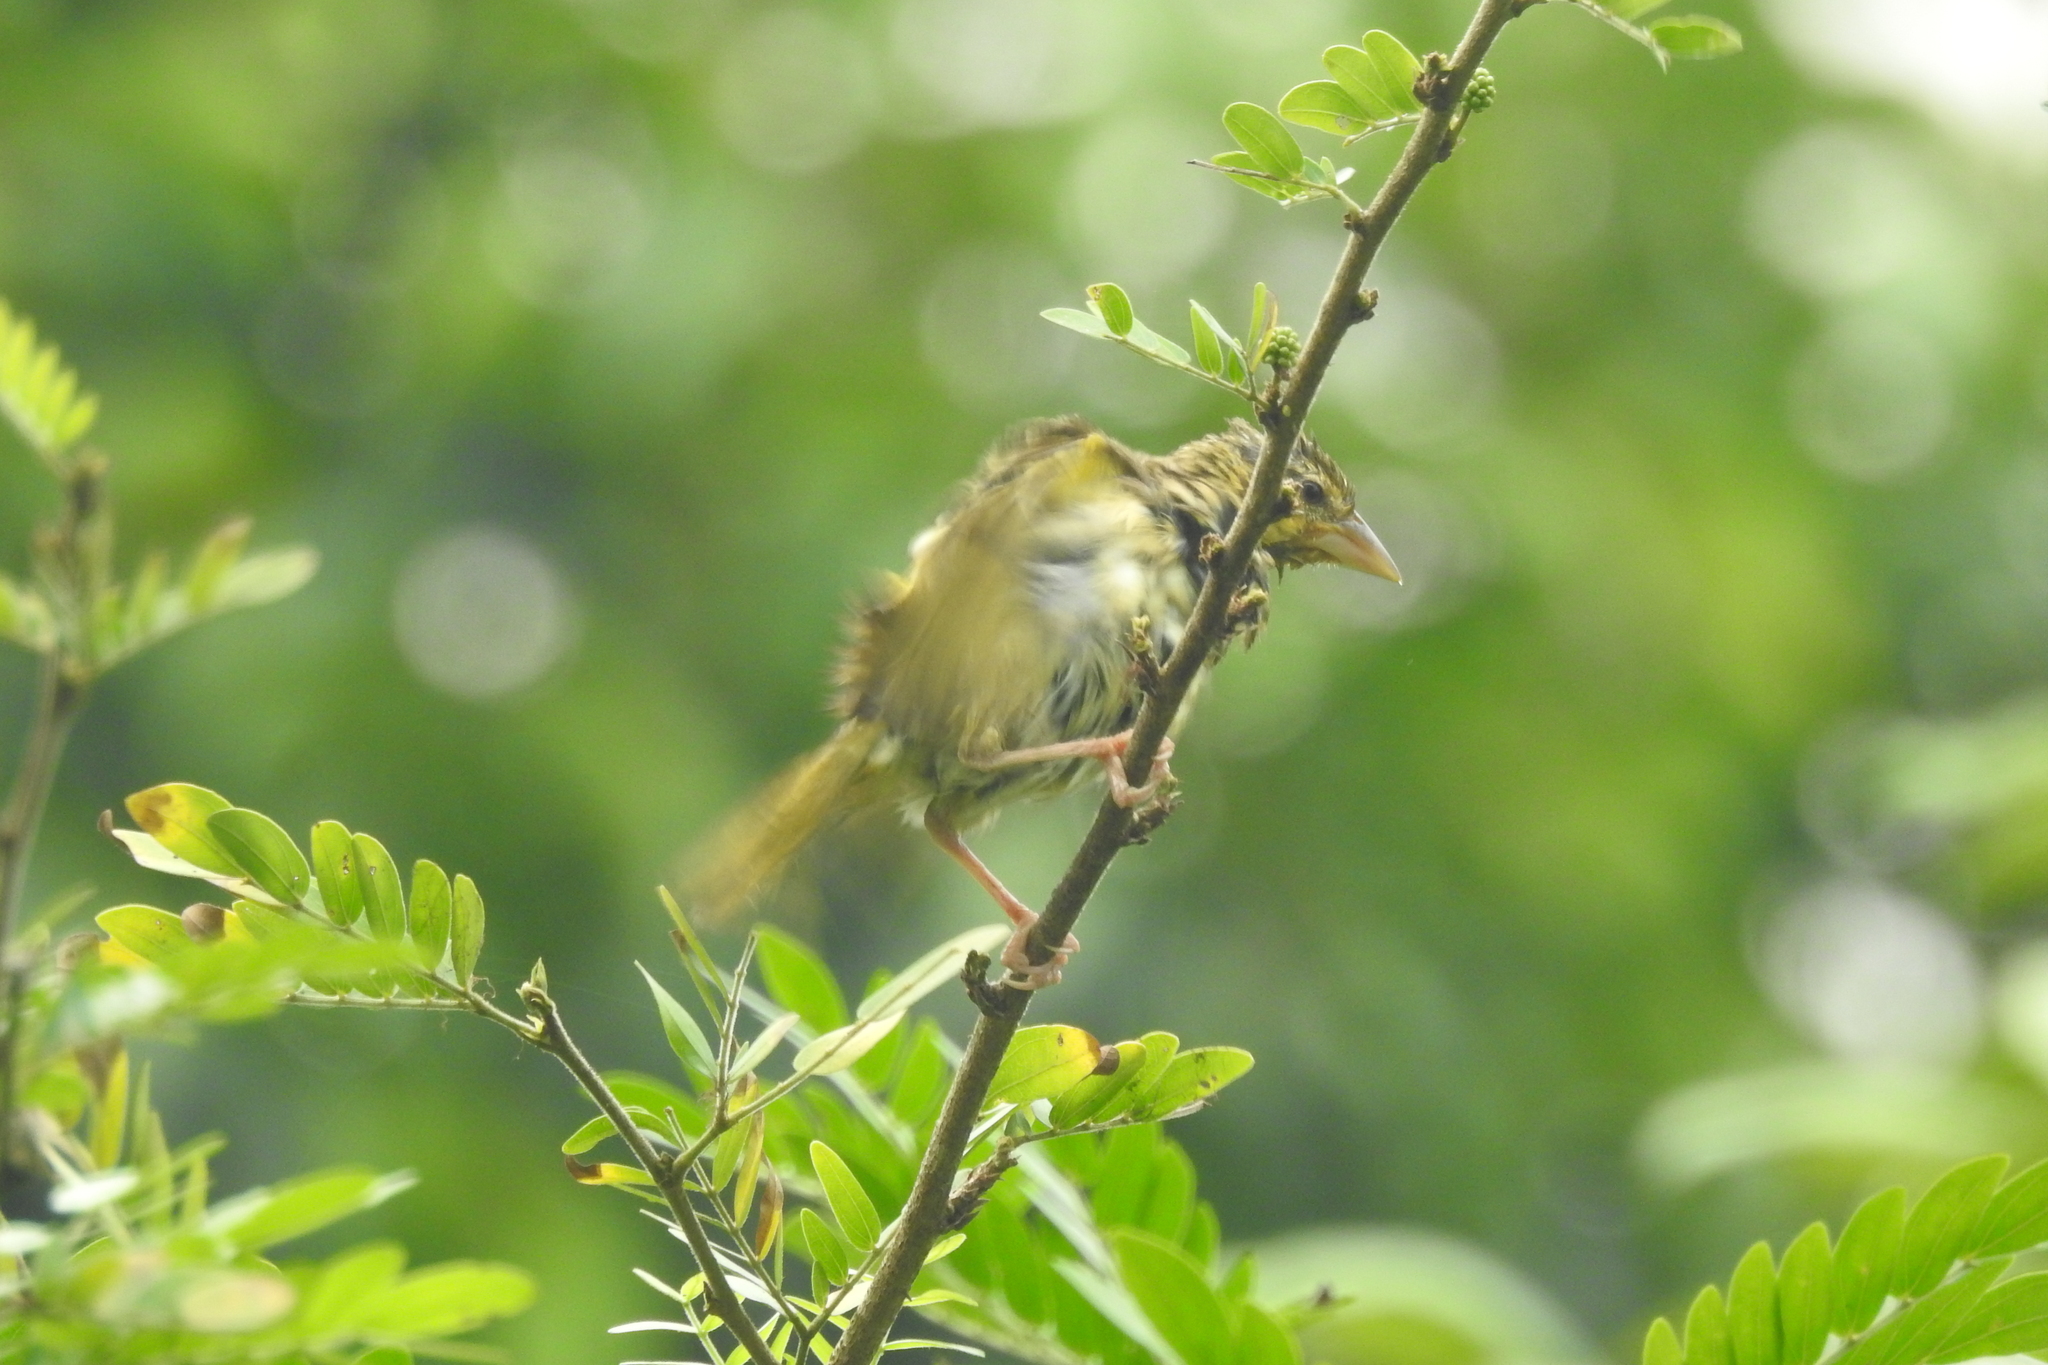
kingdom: Animalia
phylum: Chordata
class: Aves
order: Passeriformes
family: Ploceidae
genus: Ploceus
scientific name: Ploceus jacksoni
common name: Golden-backed weaver
